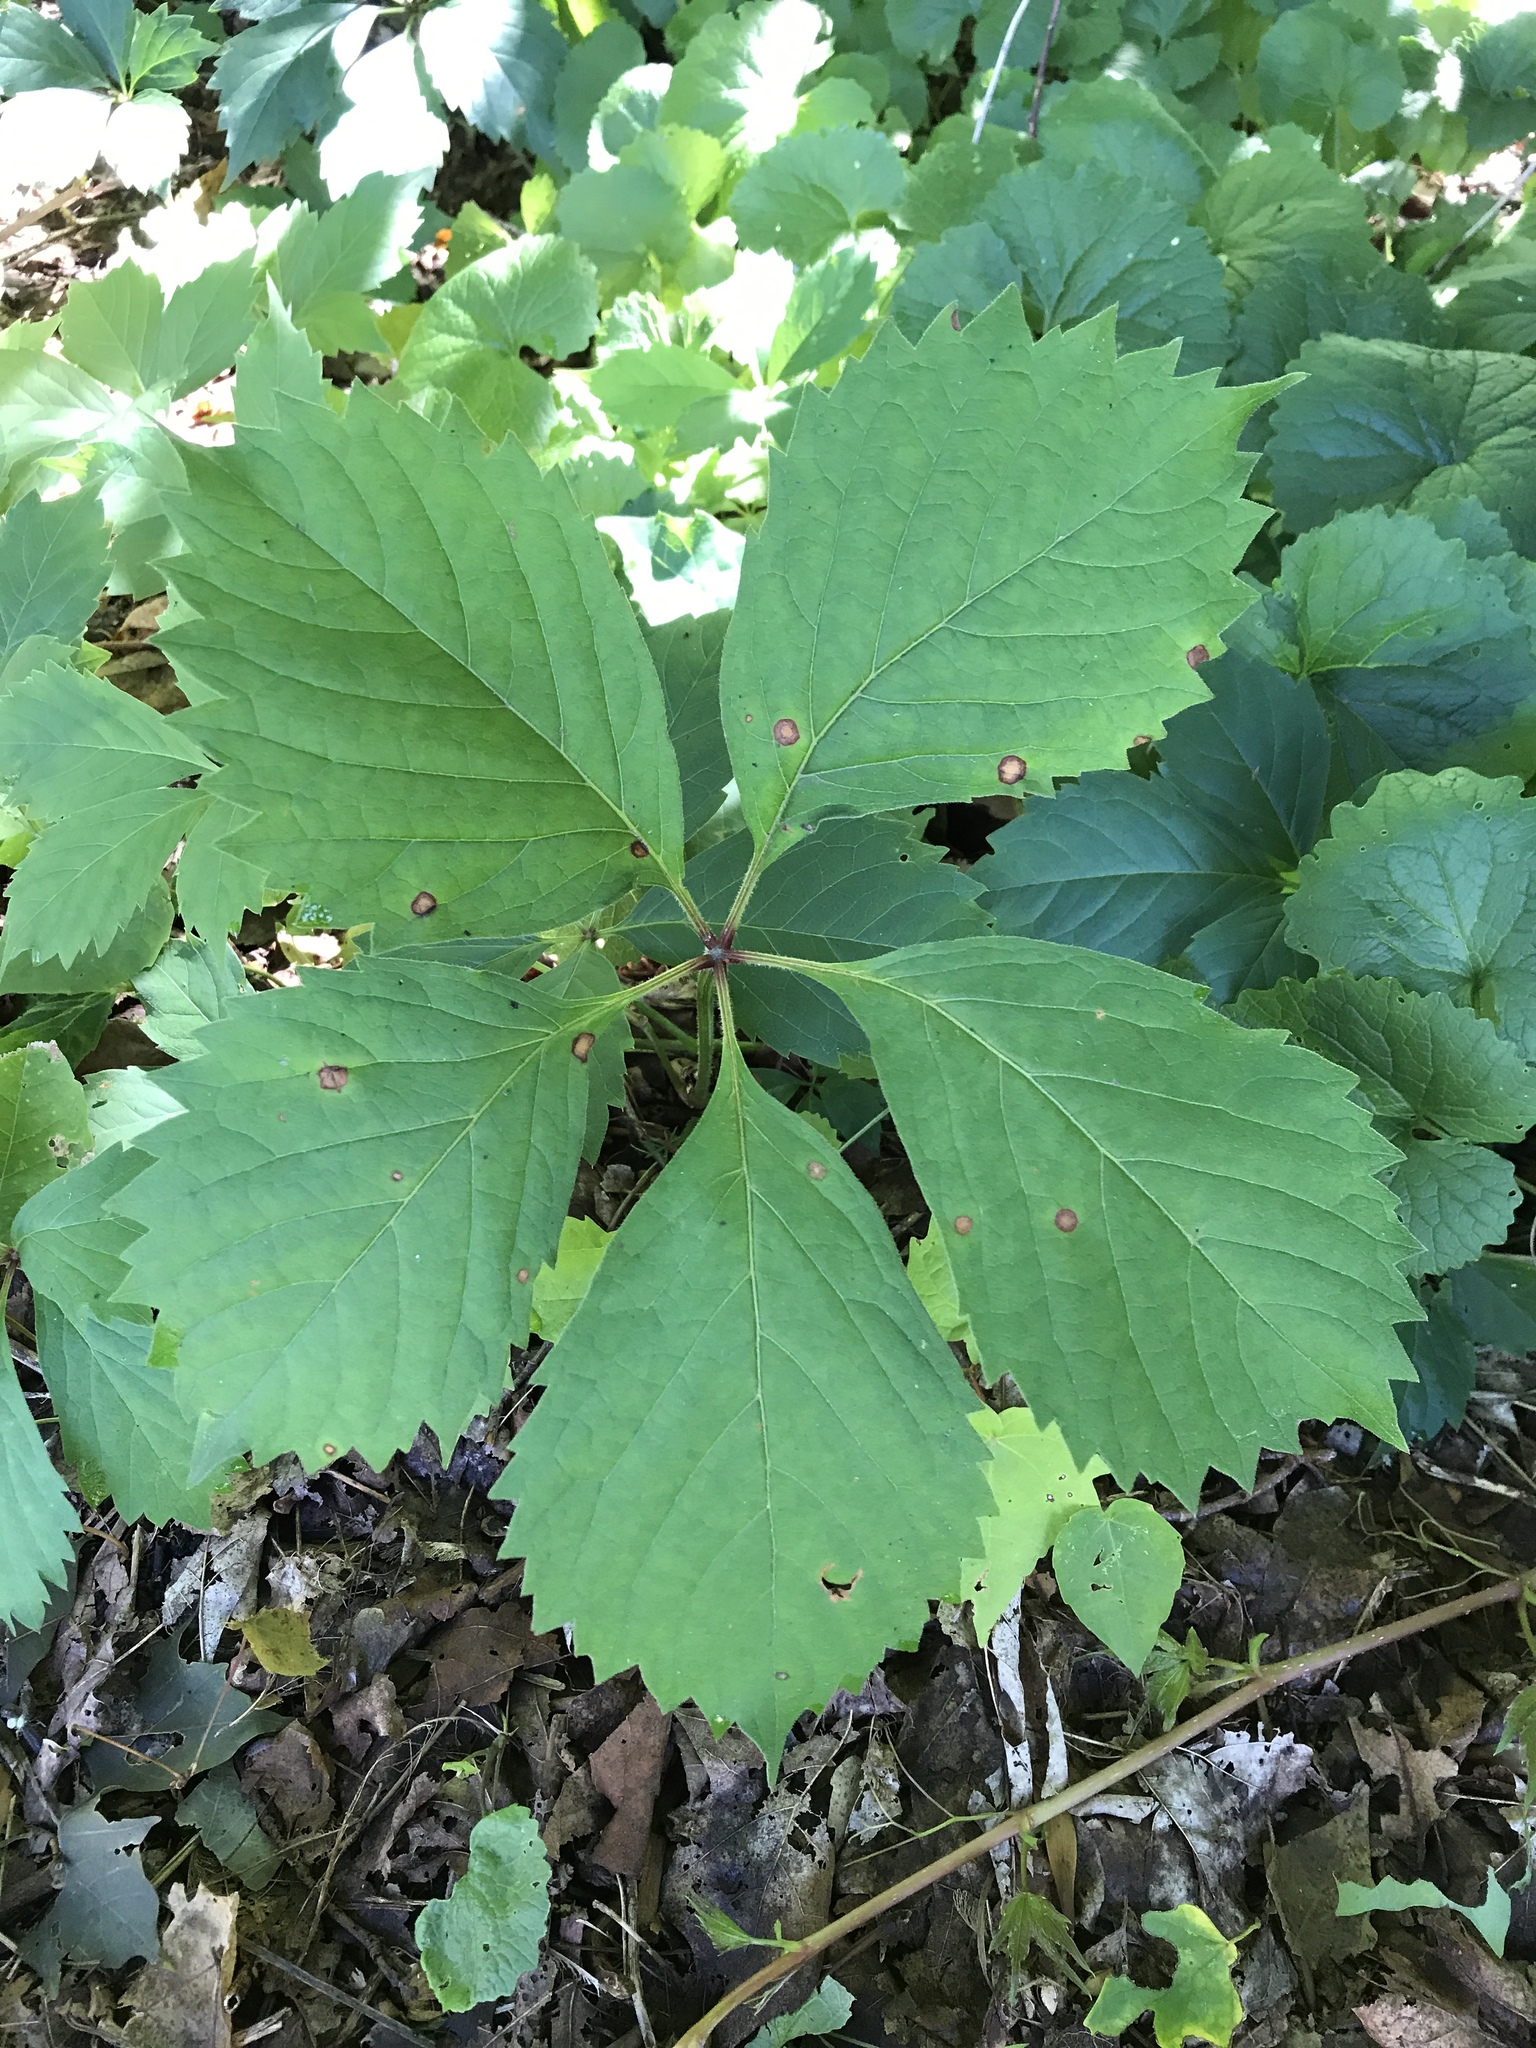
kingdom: Plantae
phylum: Tracheophyta
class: Magnoliopsida
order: Vitales
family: Vitaceae
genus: Parthenocissus
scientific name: Parthenocissus quinquefolia
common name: Virginia-creeper
